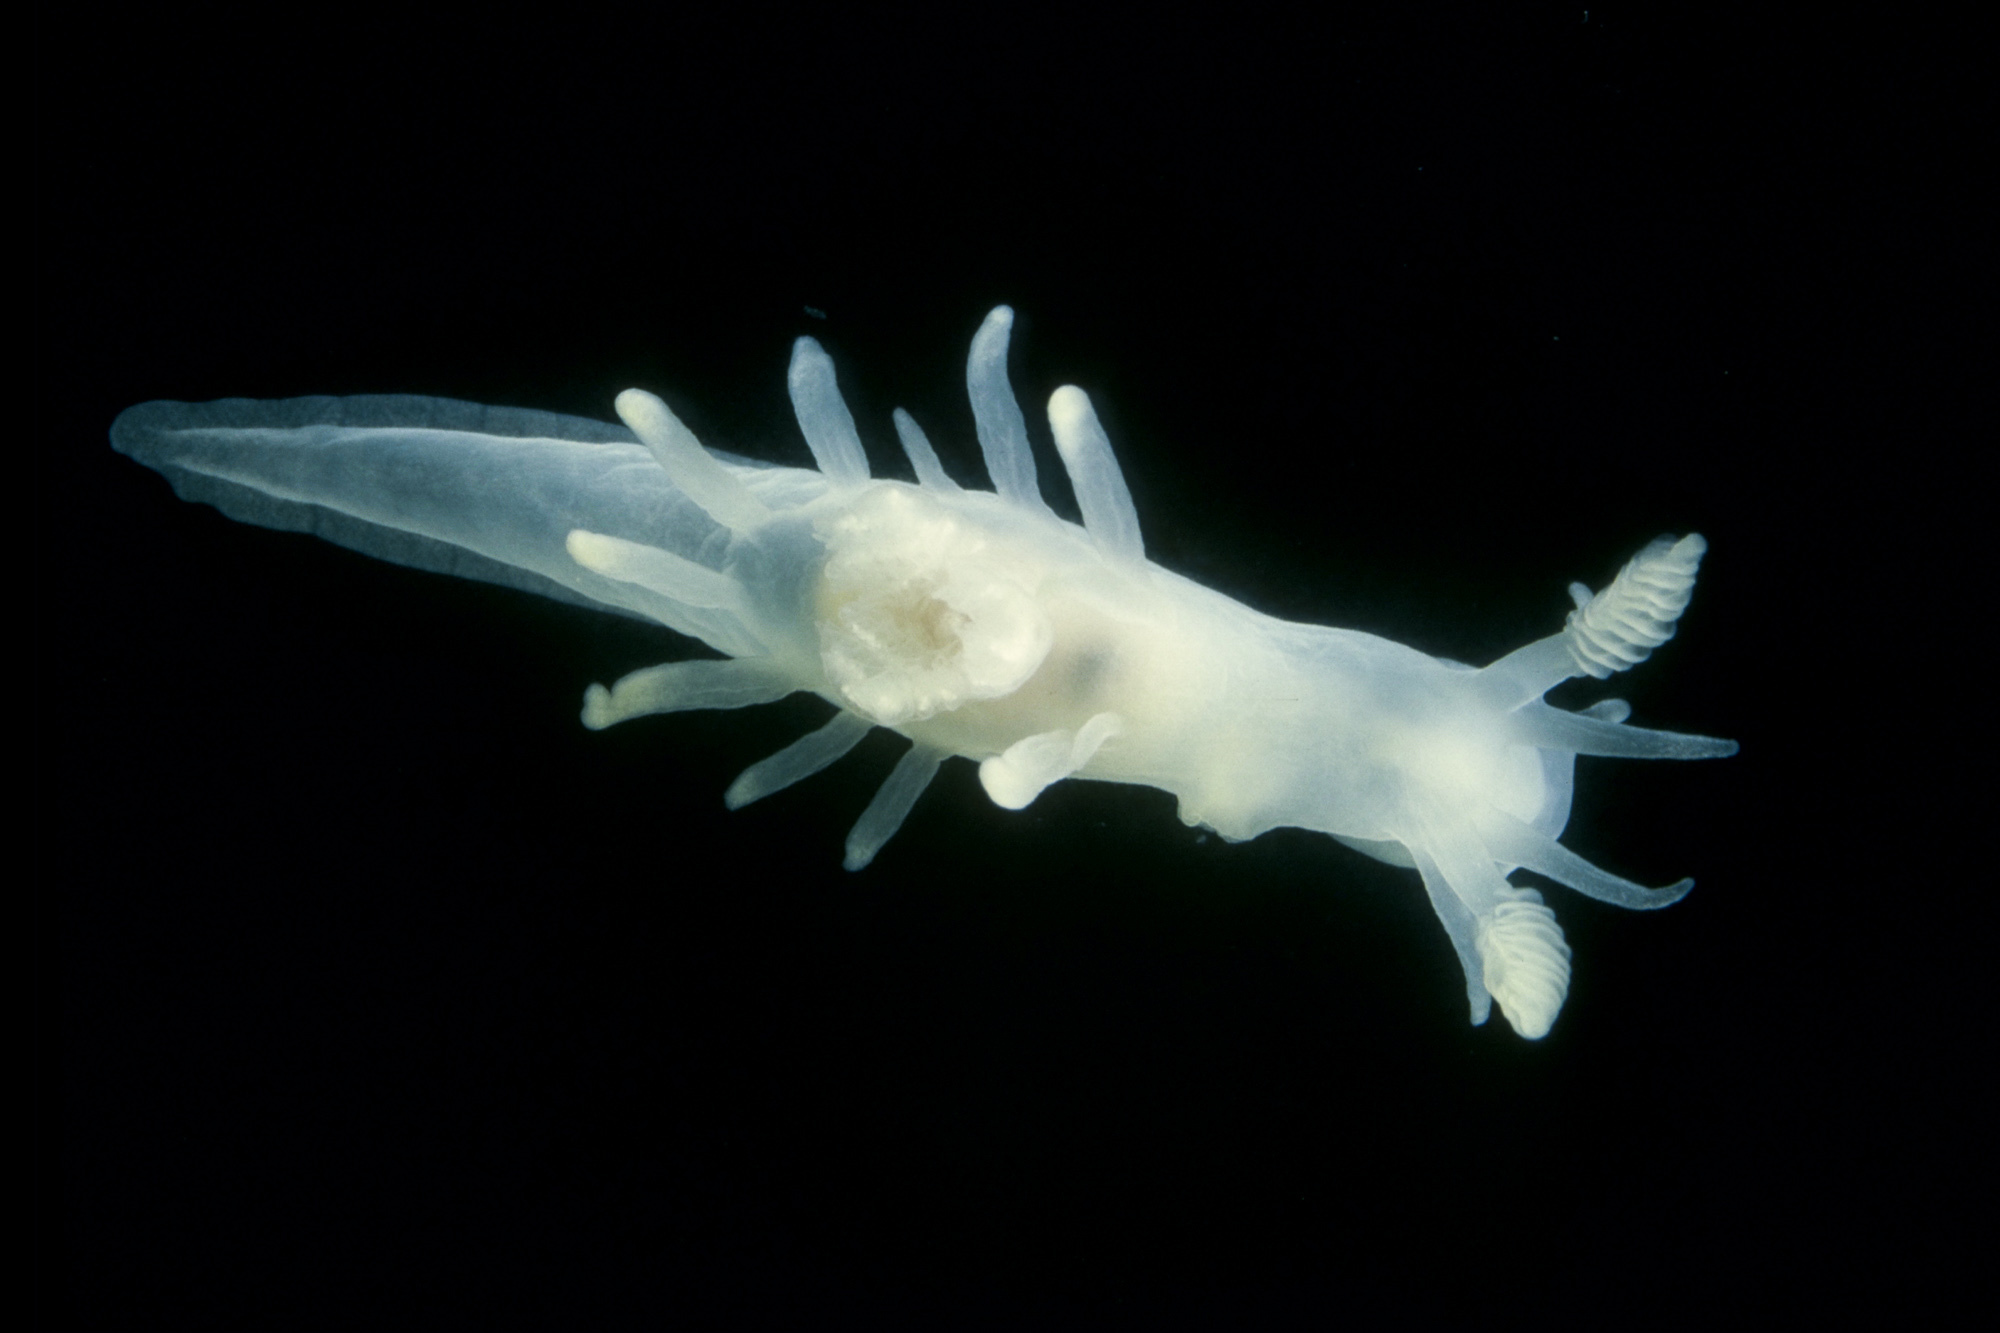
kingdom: Animalia
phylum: Mollusca
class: Gastropoda
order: Nudibranchia
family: Goniodorididae
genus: Ancula
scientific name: Ancula gibbosa
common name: Atlantic ancula
